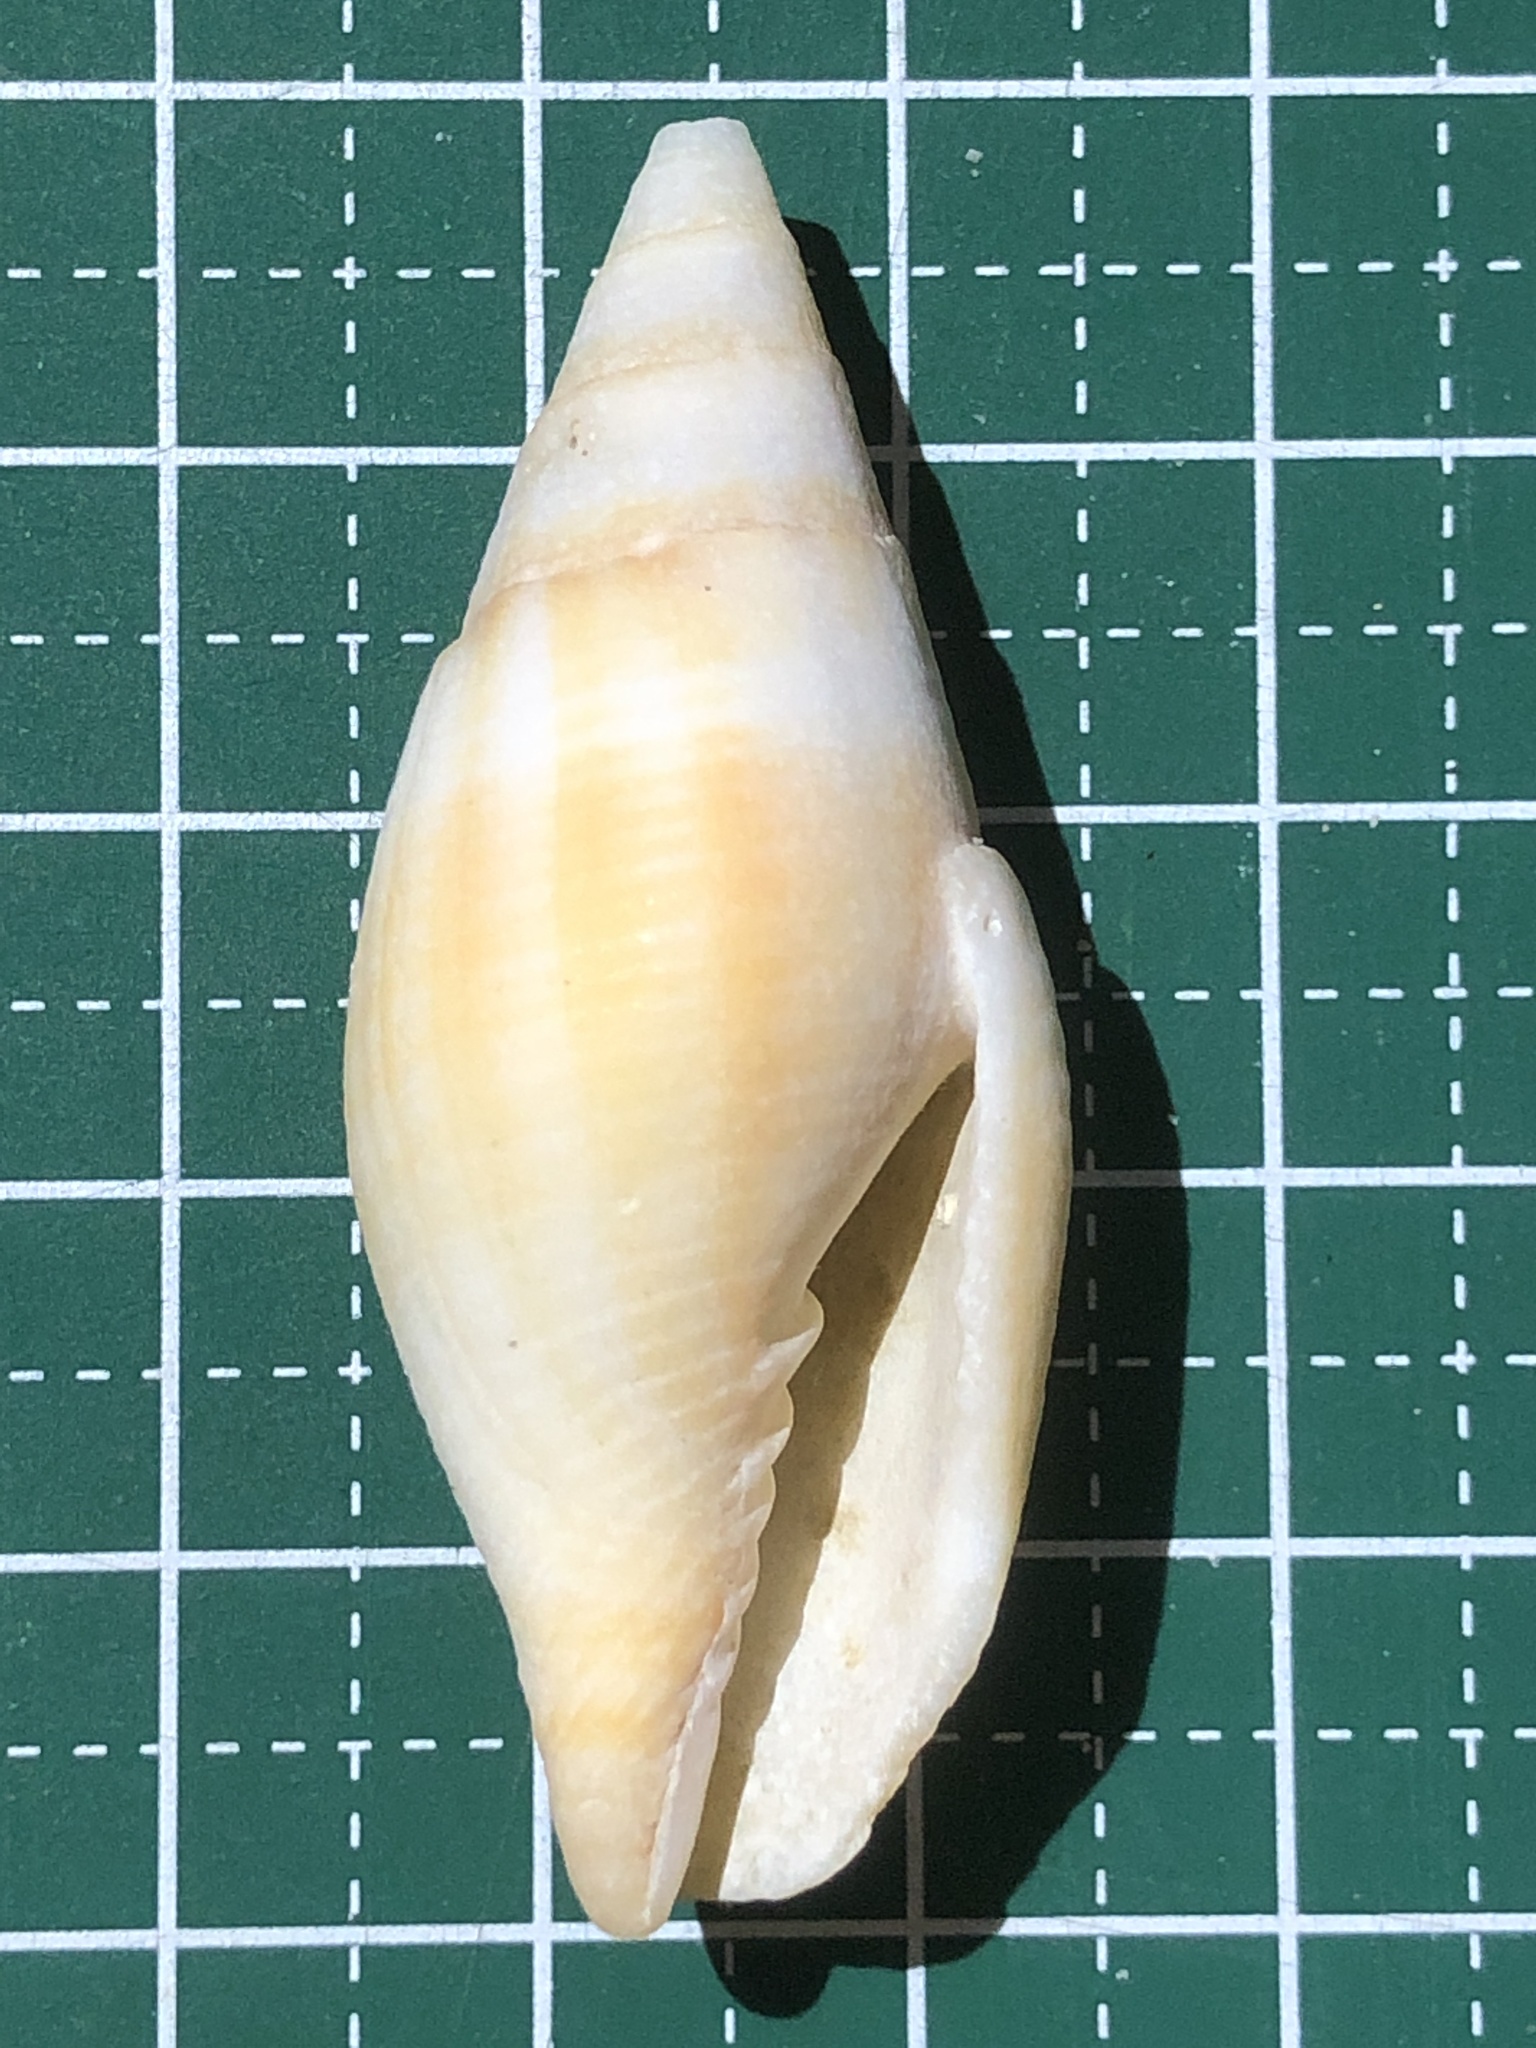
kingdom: Animalia
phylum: Mollusca
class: Gastropoda
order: Neogastropoda
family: Mitridae
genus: Nebularia
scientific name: Nebularia chrysostoma
